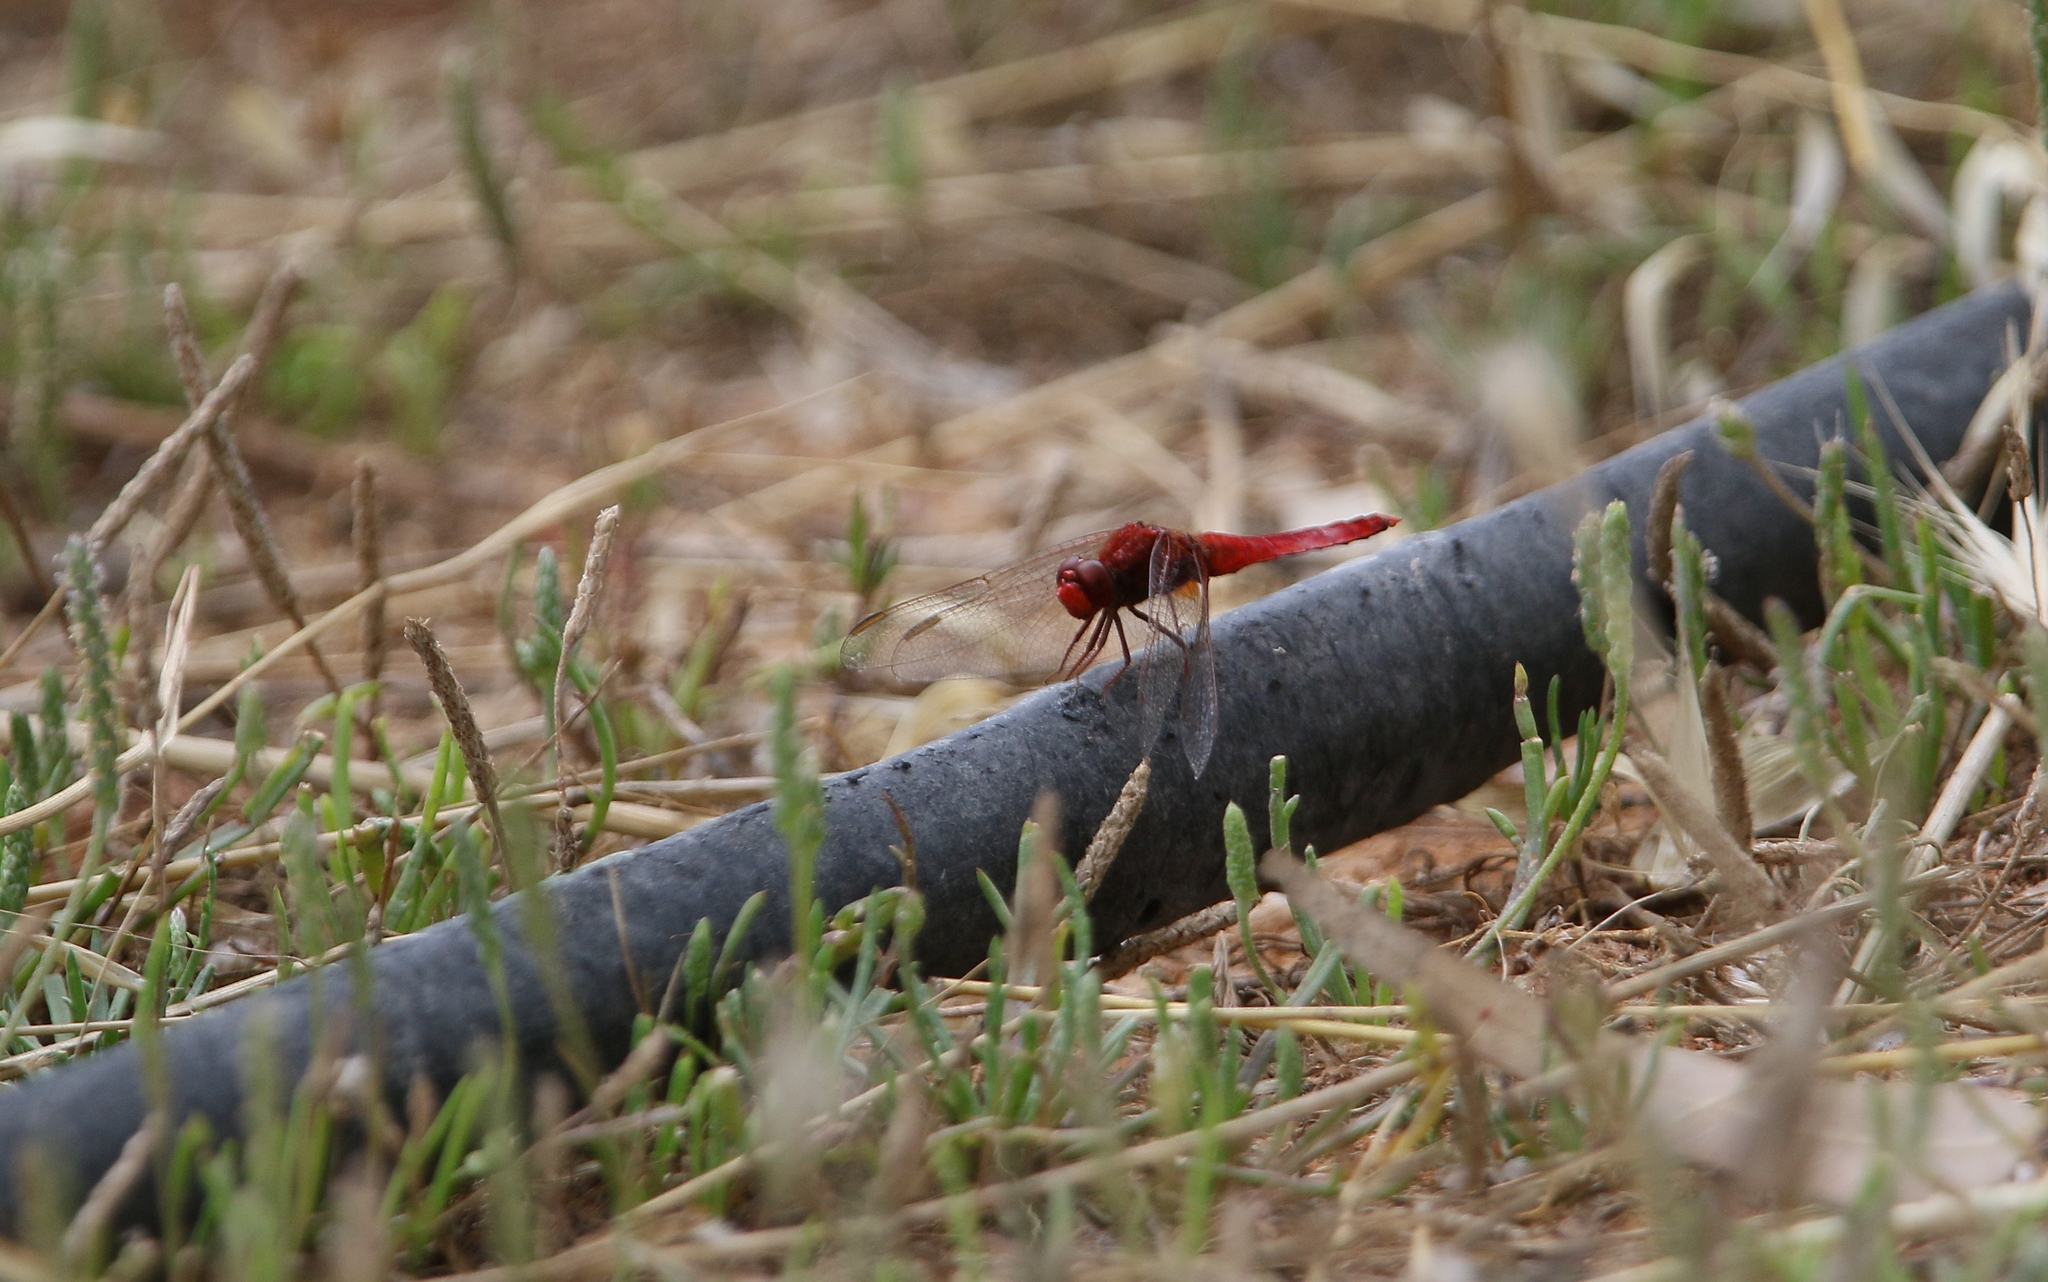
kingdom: Animalia
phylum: Arthropoda
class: Insecta
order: Odonata
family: Libellulidae
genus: Crocothemis
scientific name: Crocothemis erythraea
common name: Scarlet dragonfly
